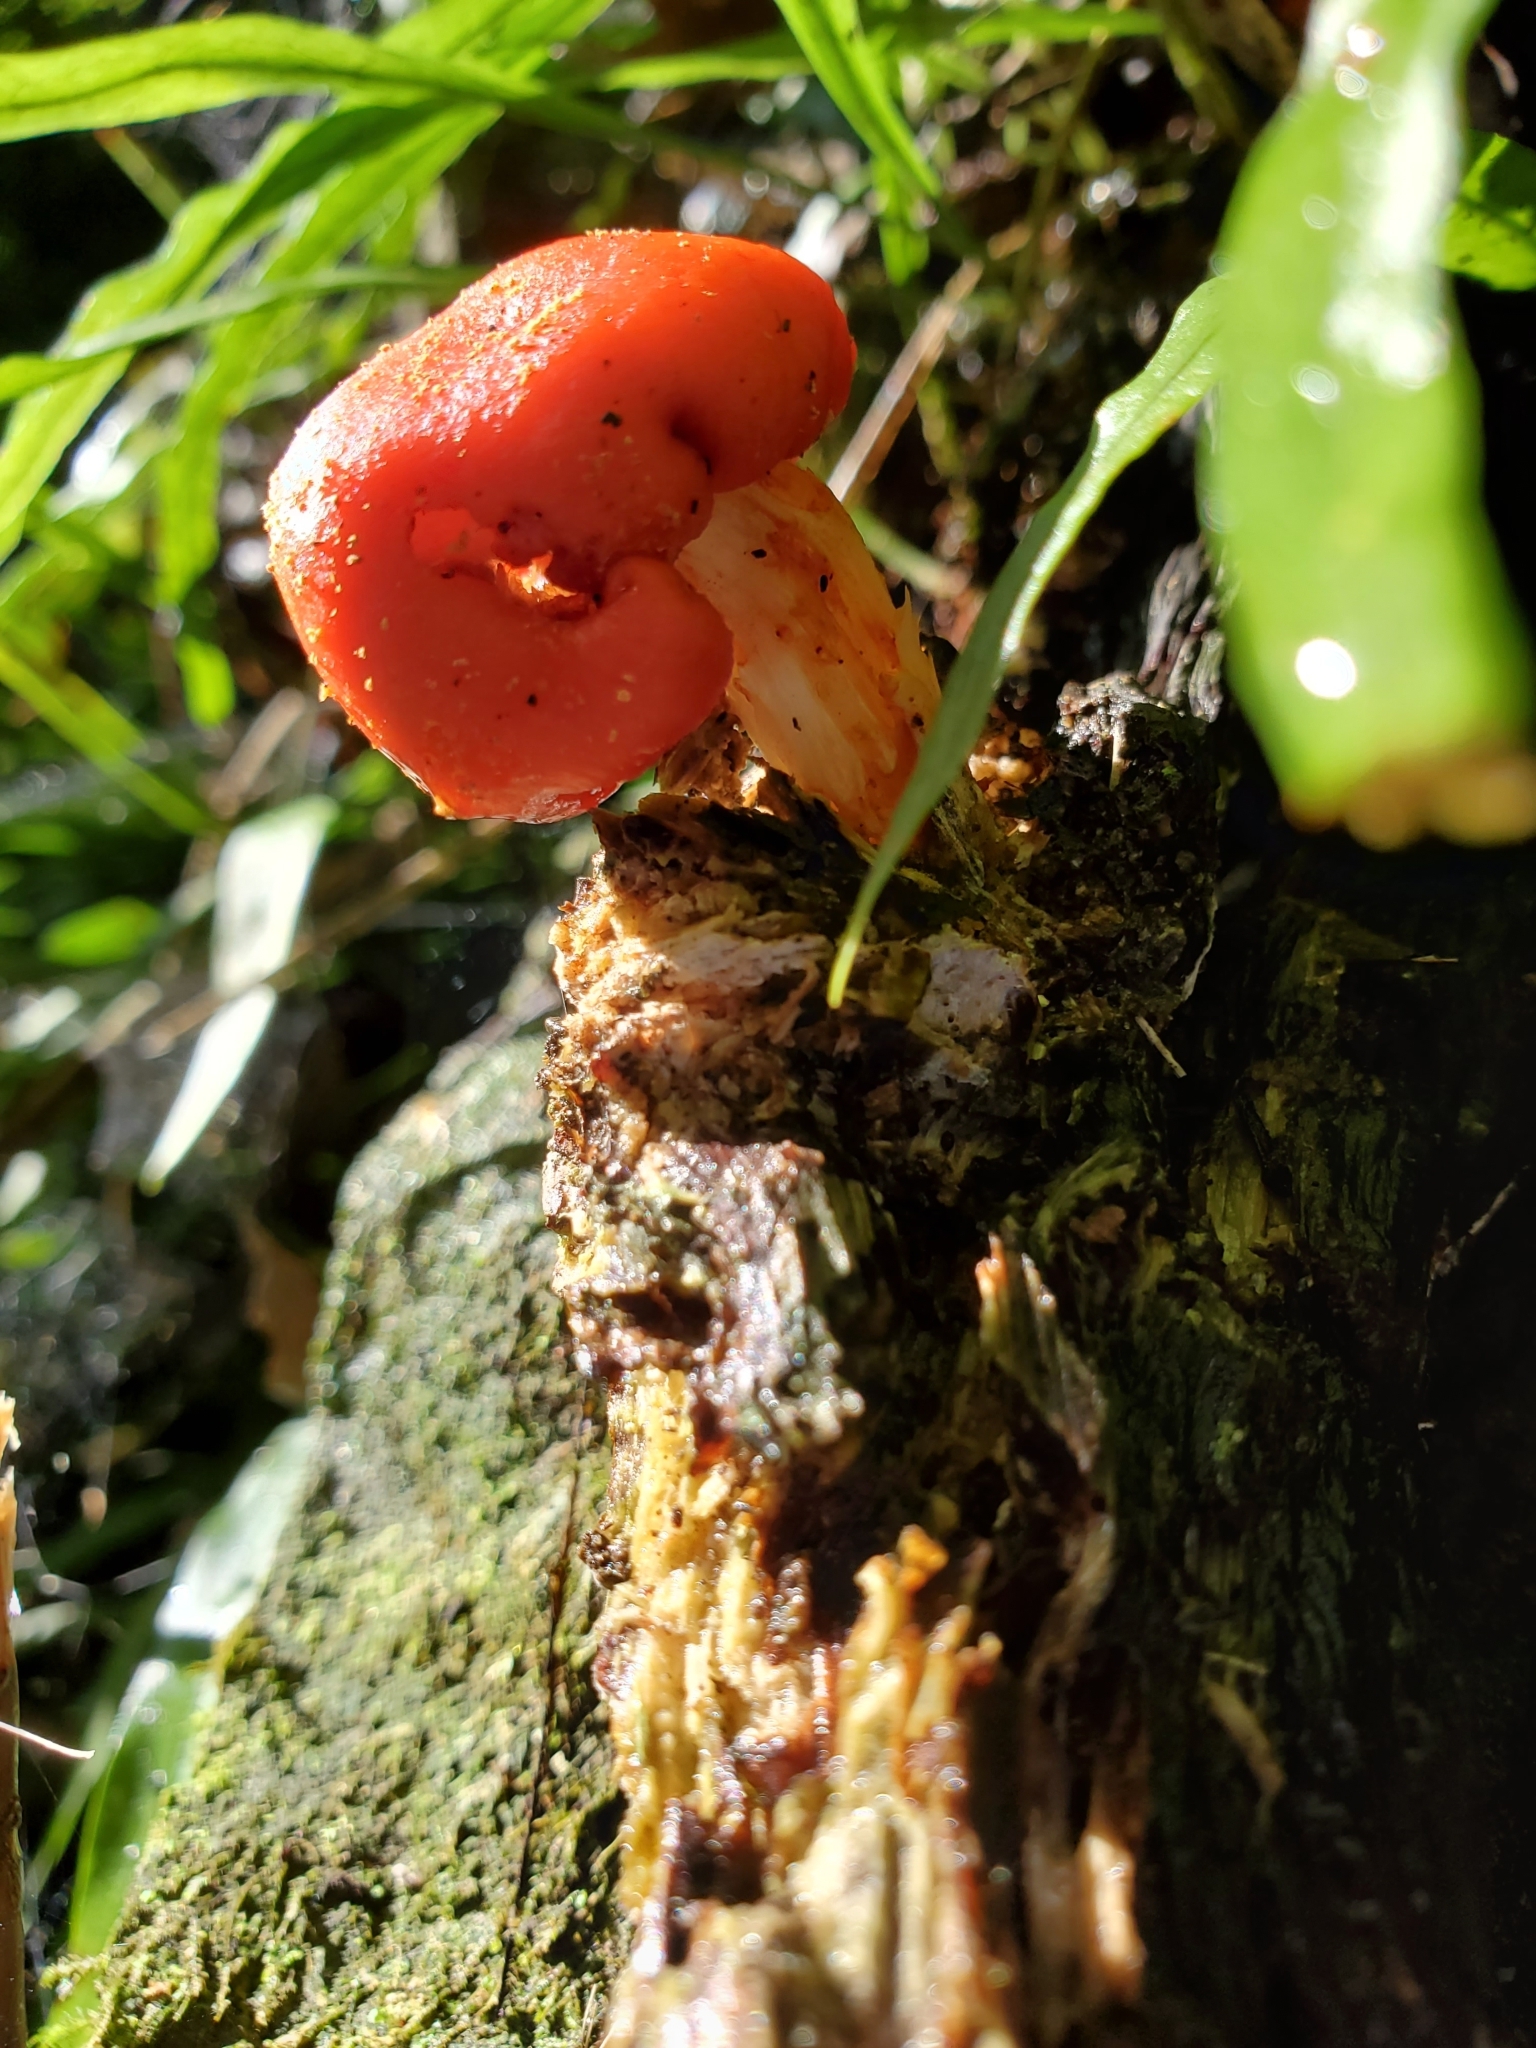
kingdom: Fungi
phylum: Basidiomycota
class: Agaricomycetes
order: Agaricales
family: Strophariaceae
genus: Leratiomyces
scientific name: Leratiomyces erythrocephalus
